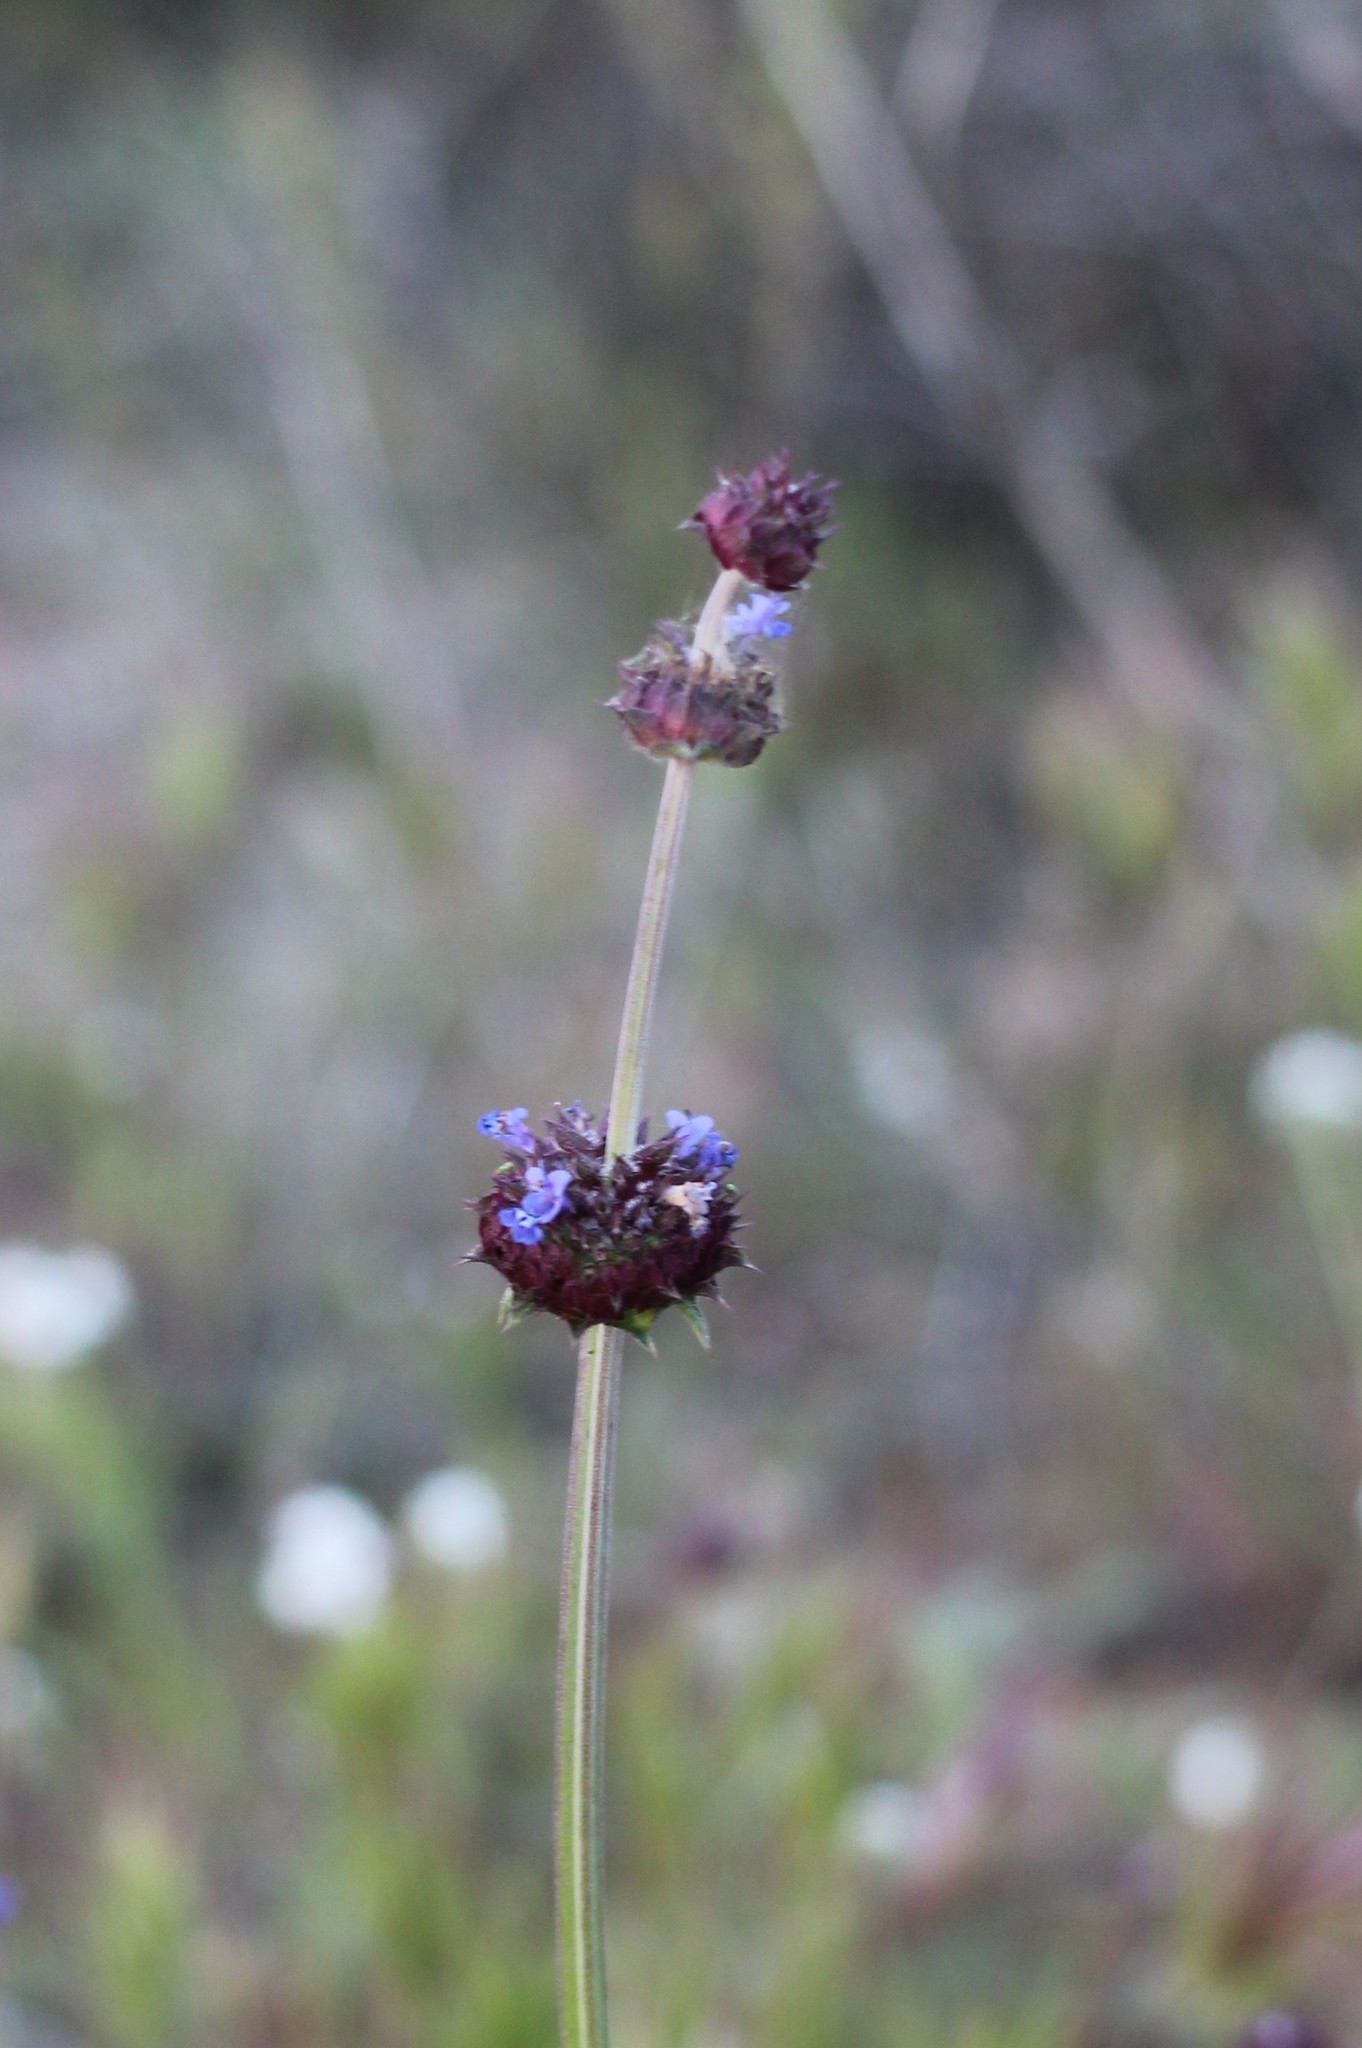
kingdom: Plantae
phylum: Tracheophyta
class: Magnoliopsida
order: Lamiales
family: Lamiaceae
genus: Salvia
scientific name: Salvia columbariae
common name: Chia
